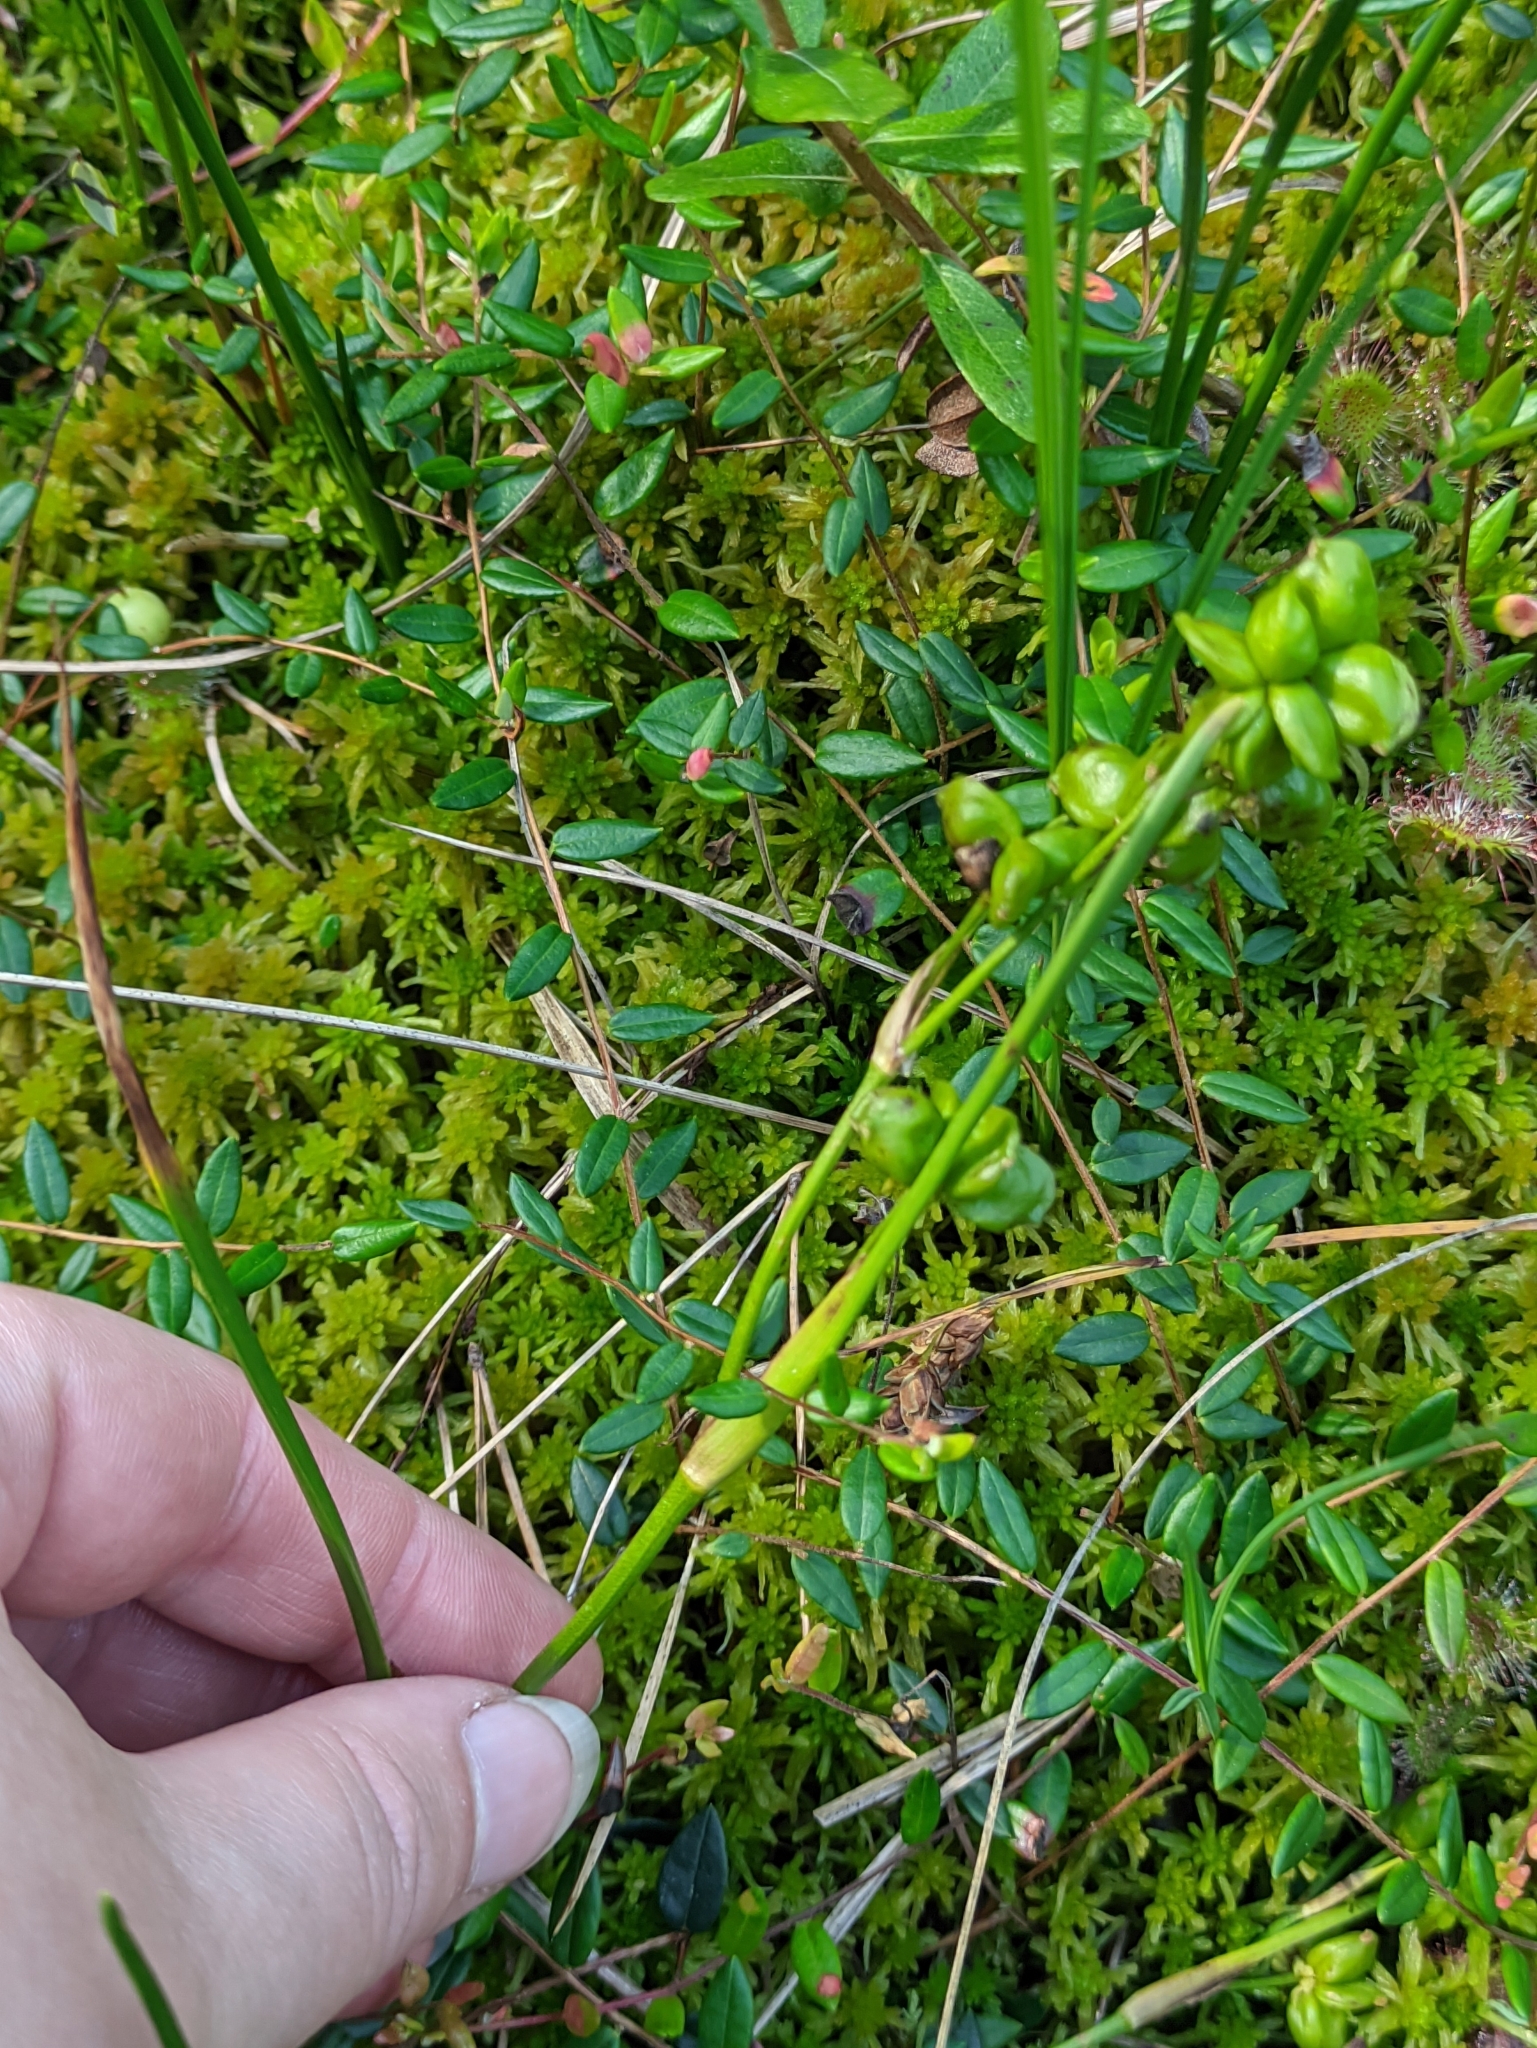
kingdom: Plantae
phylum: Tracheophyta
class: Liliopsida
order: Alismatales
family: Scheuchzeriaceae
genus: Scheuchzeria
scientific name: Scheuchzeria palustris
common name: Rannoch-rush
